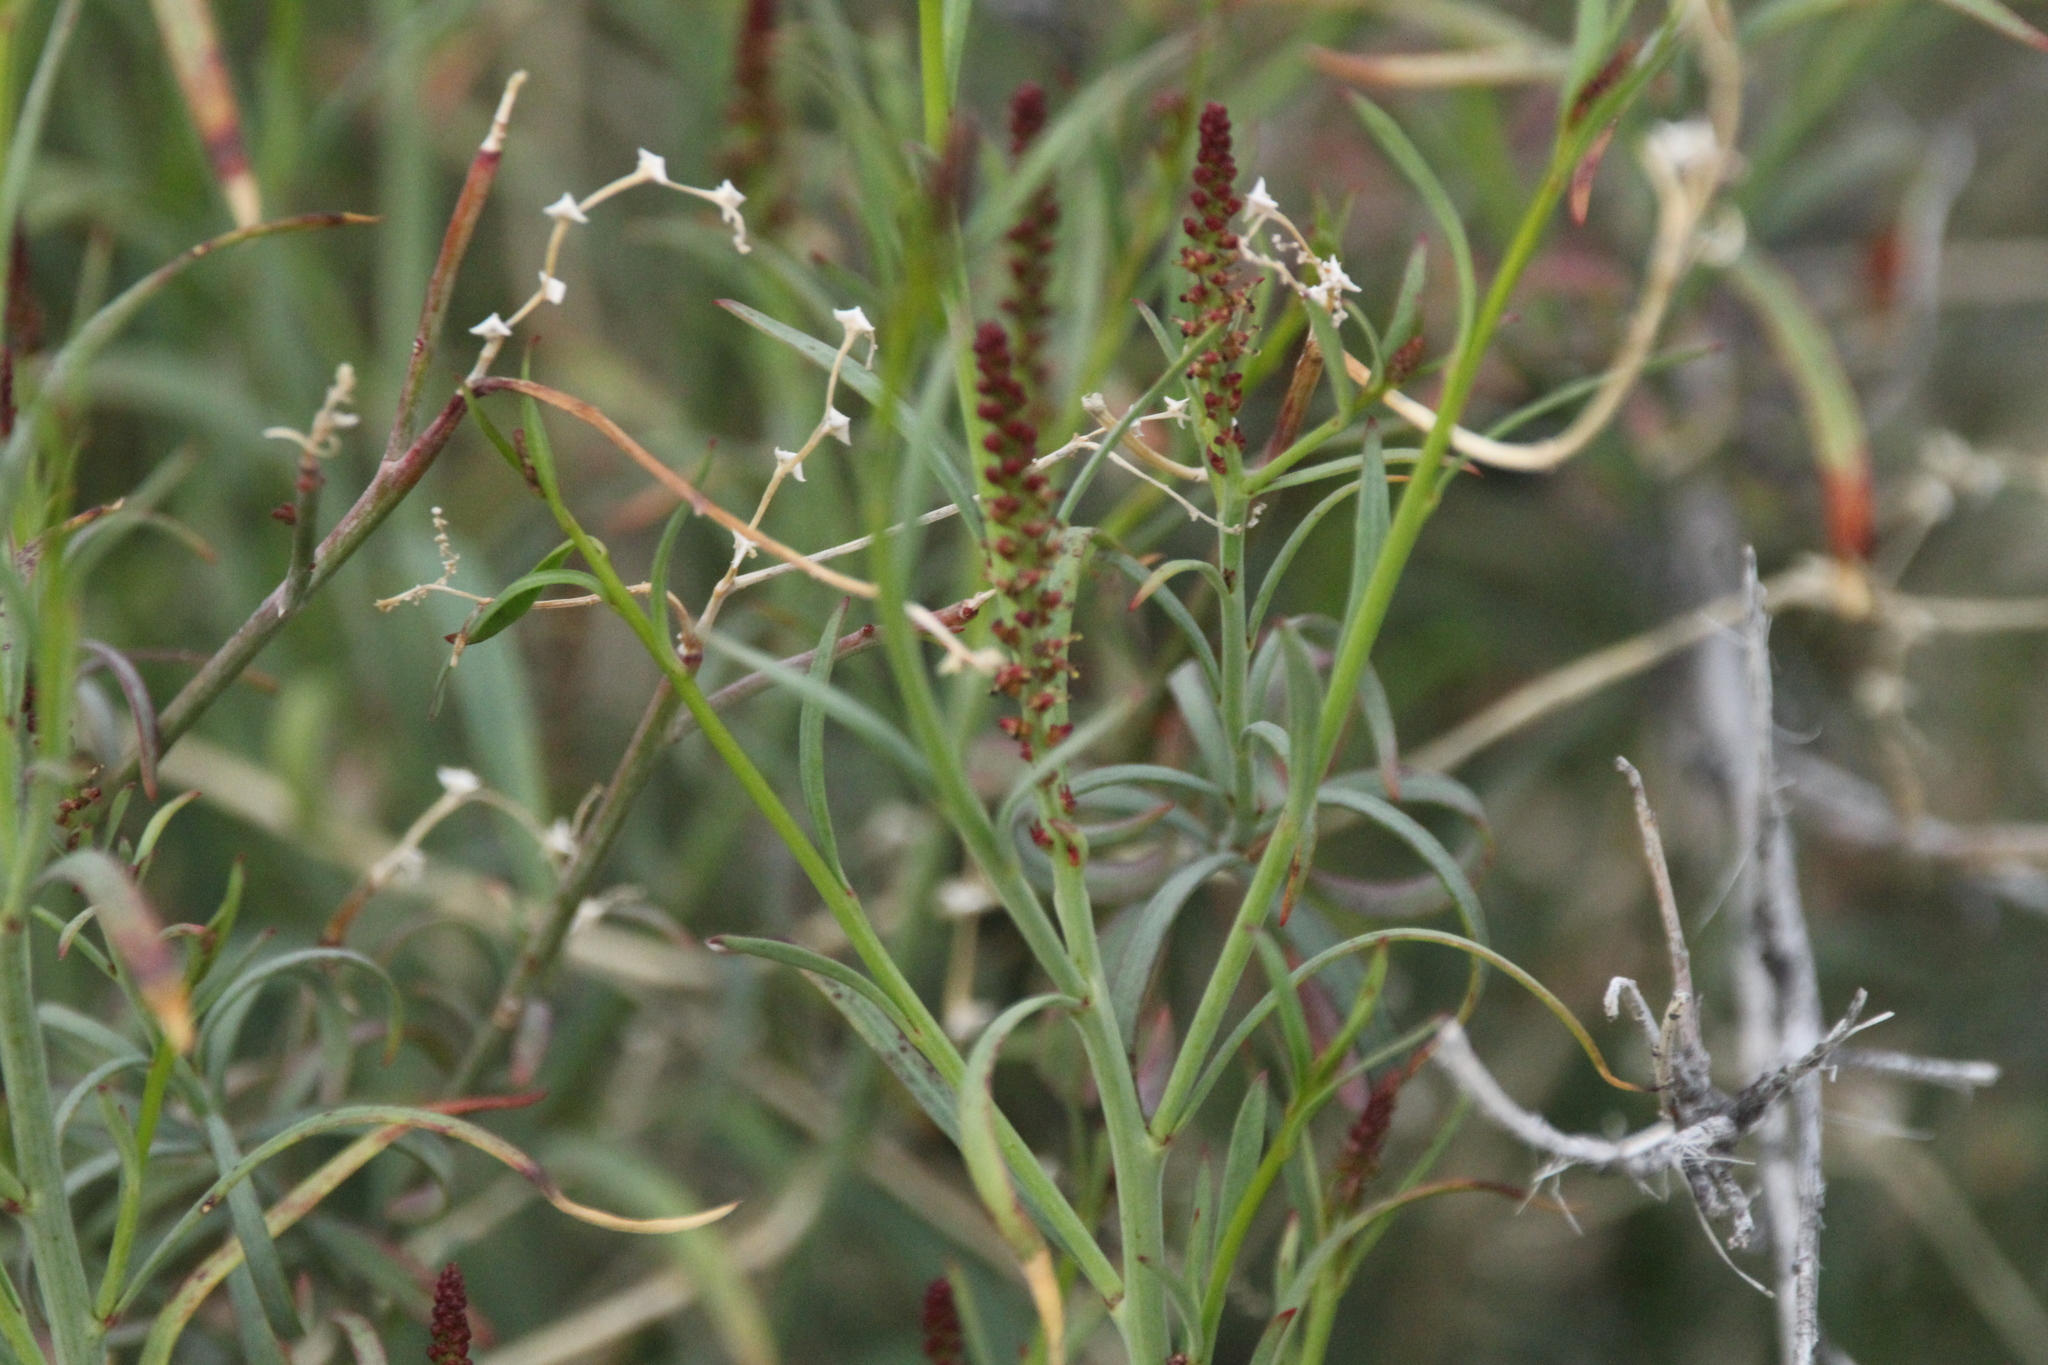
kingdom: Plantae
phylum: Tracheophyta
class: Magnoliopsida
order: Malpighiales
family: Euphorbiaceae
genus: Stillingia
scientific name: Stillingia linearifolia
